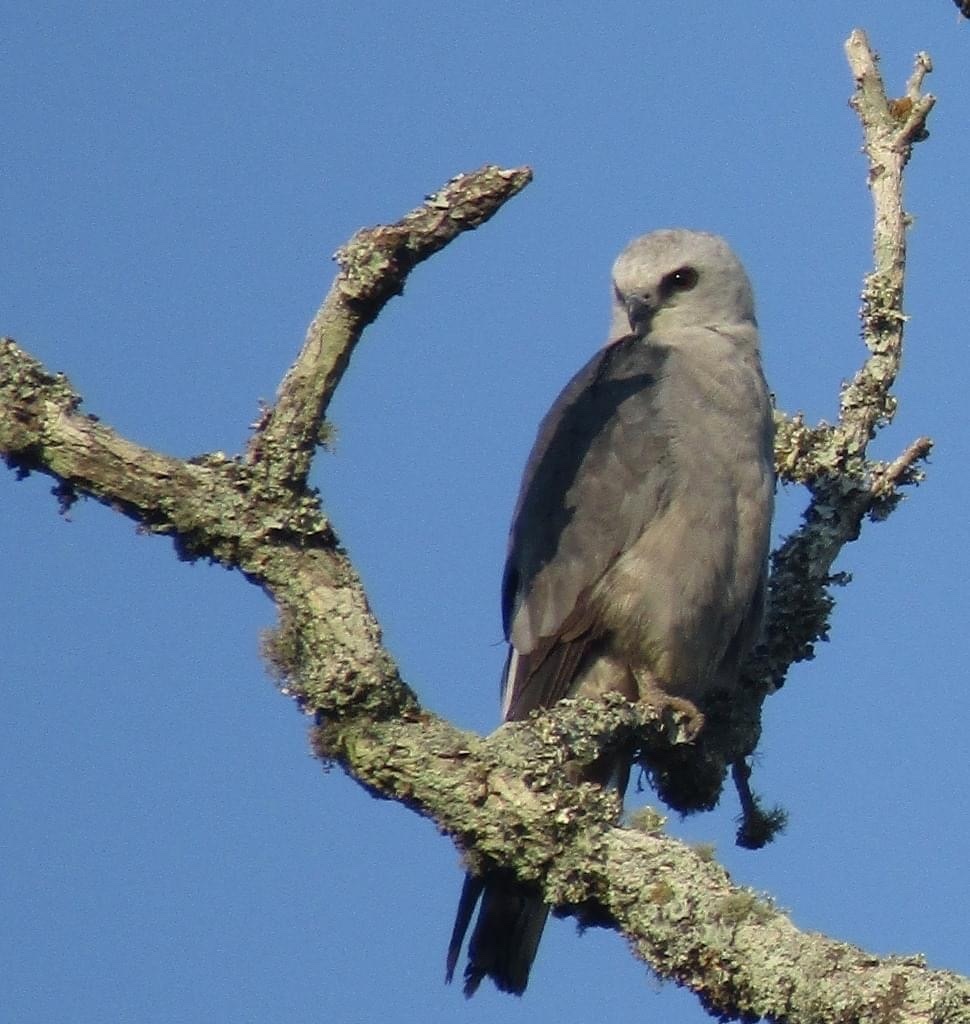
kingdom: Animalia
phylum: Chordata
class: Aves
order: Accipitriformes
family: Accipitridae
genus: Ictinia
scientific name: Ictinia mississippiensis
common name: Mississippi kite
